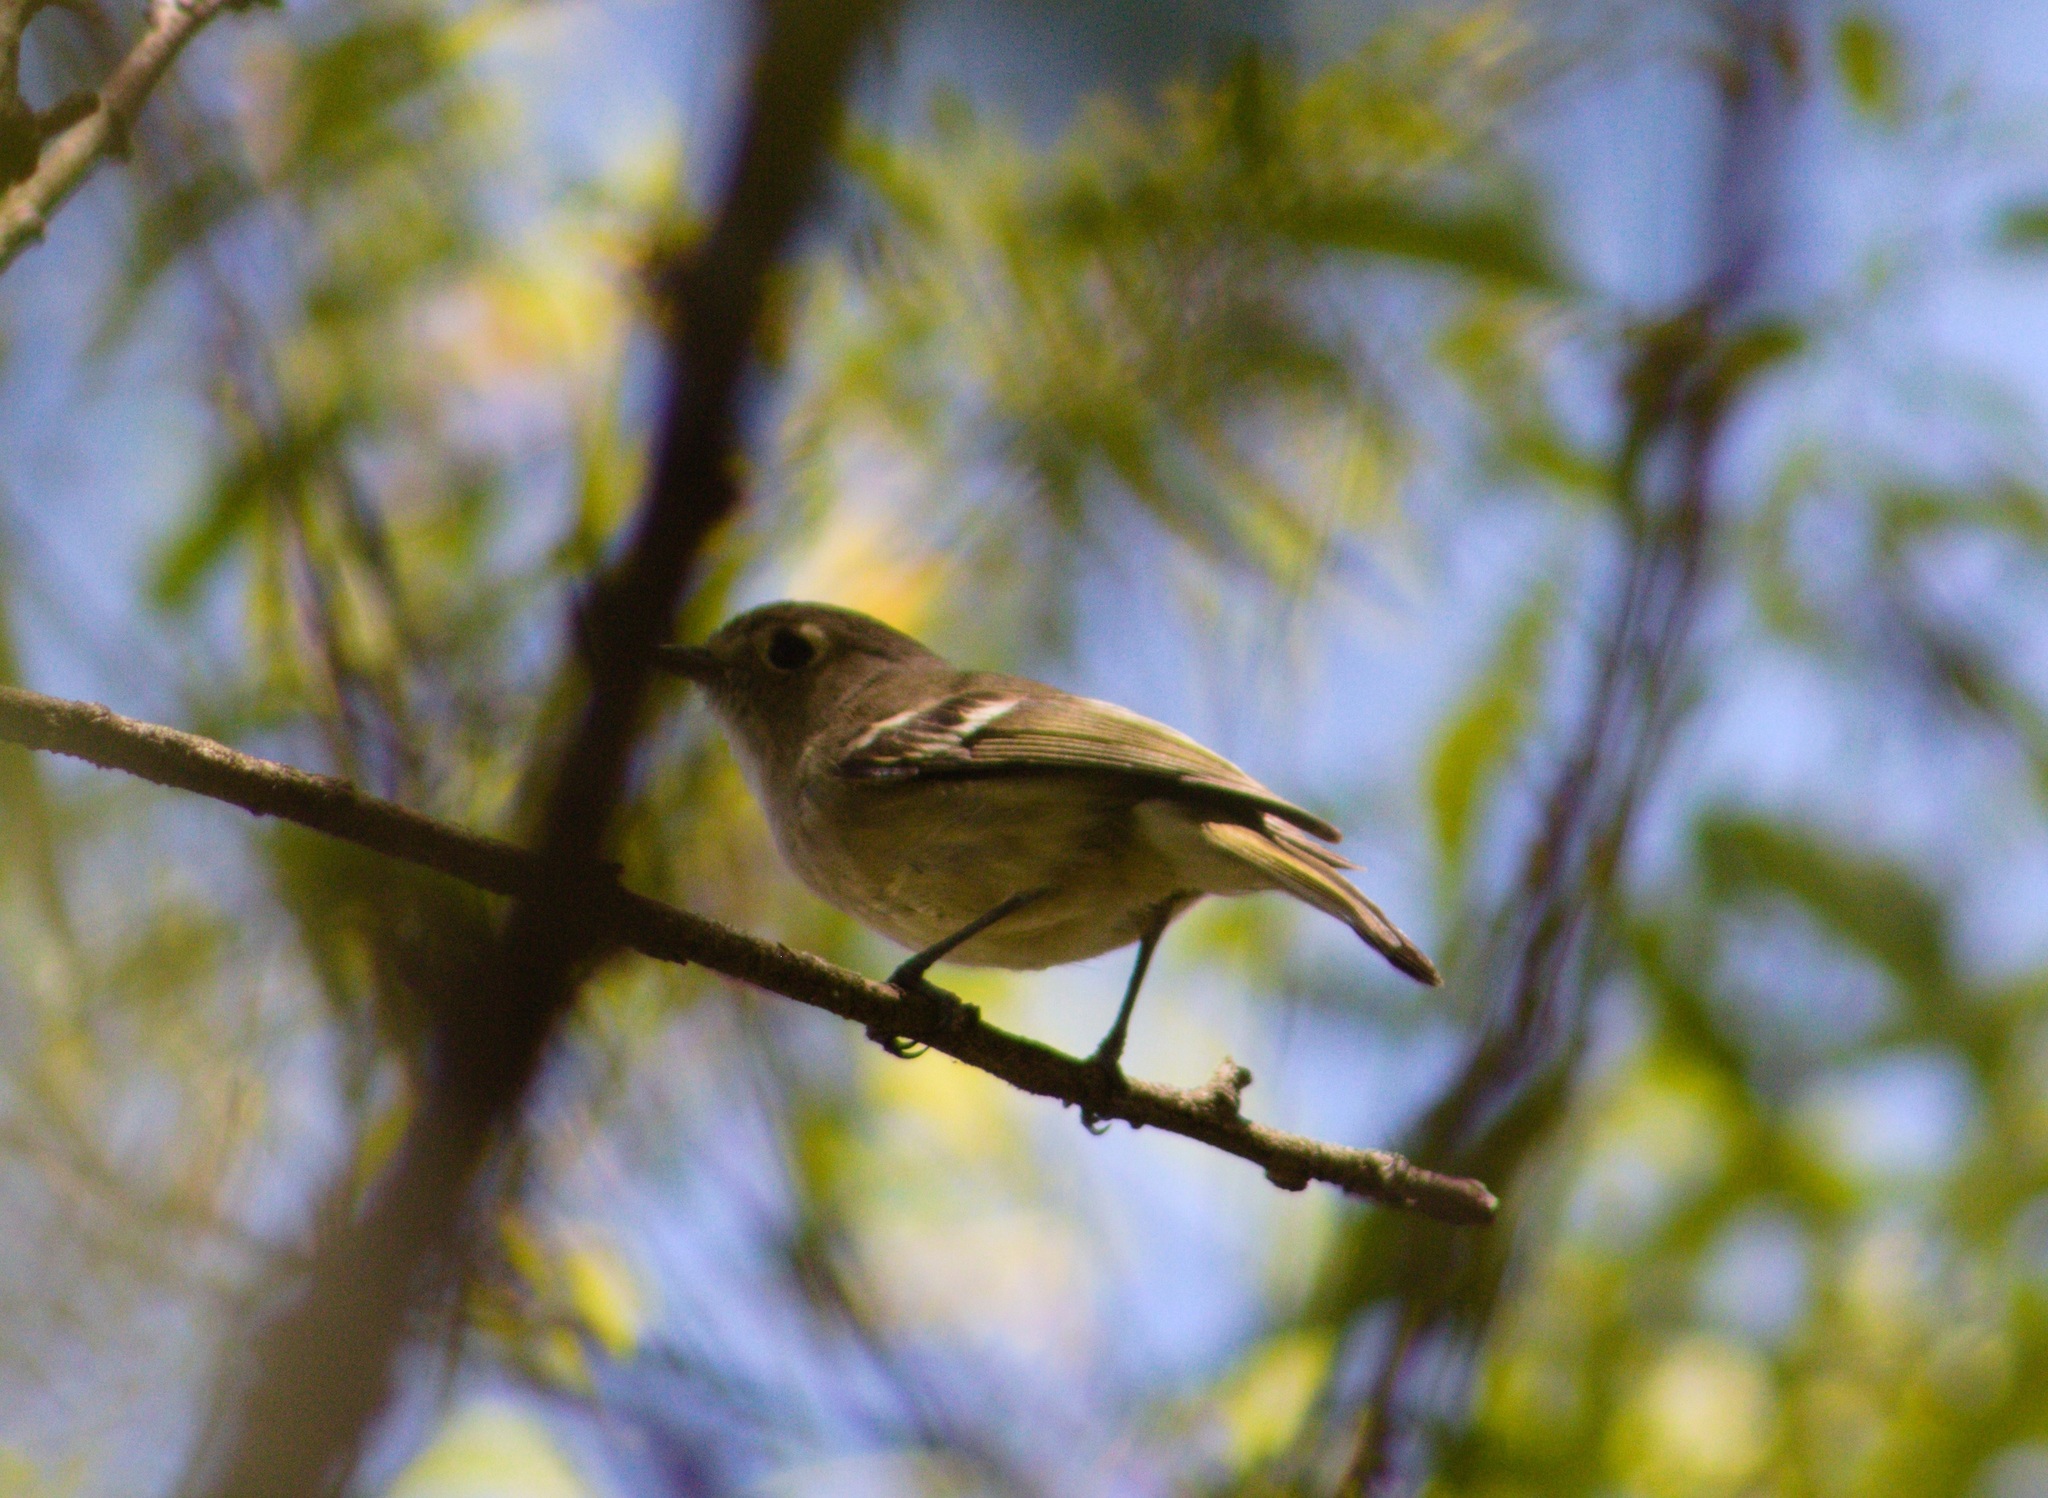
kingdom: Animalia
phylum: Chordata
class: Aves
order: Passeriformes
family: Vireonidae
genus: Vireo
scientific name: Vireo huttoni
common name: Hutton's vireo
